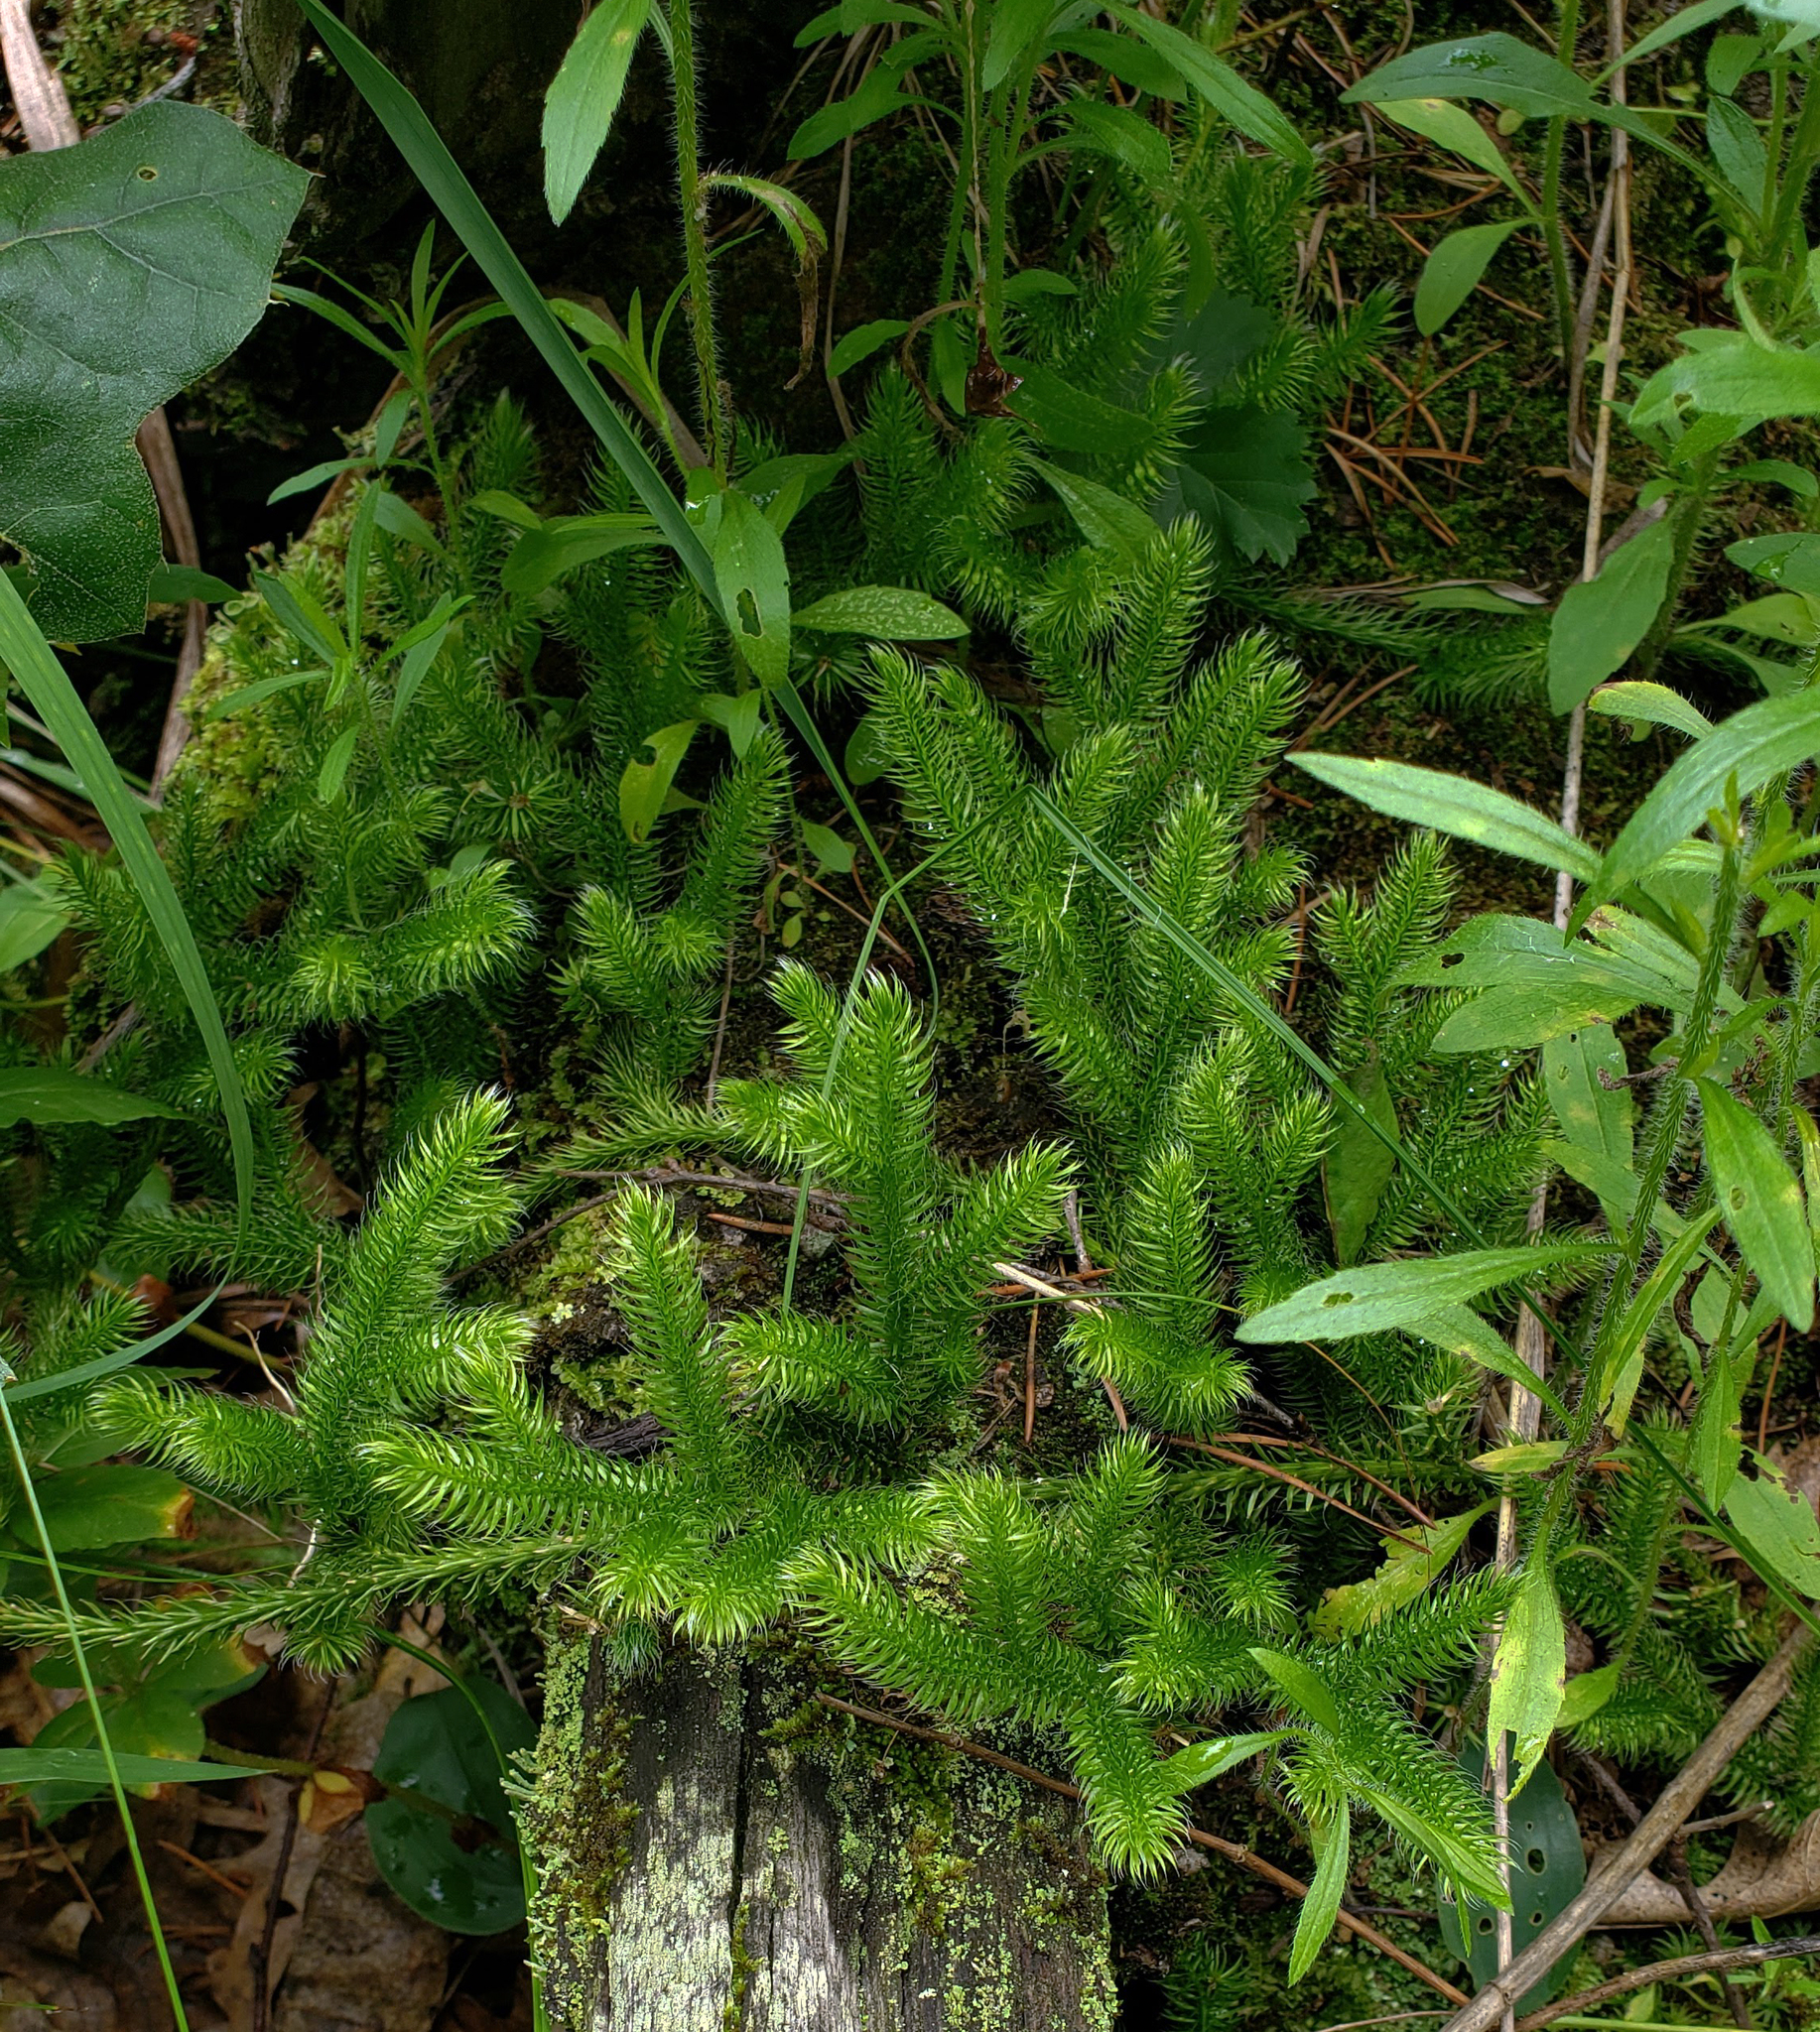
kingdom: Plantae
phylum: Tracheophyta
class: Lycopodiopsida
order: Lycopodiales
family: Lycopodiaceae
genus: Lycopodium
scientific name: Lycopodium clavatum
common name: Stag's-horn clubmoss
